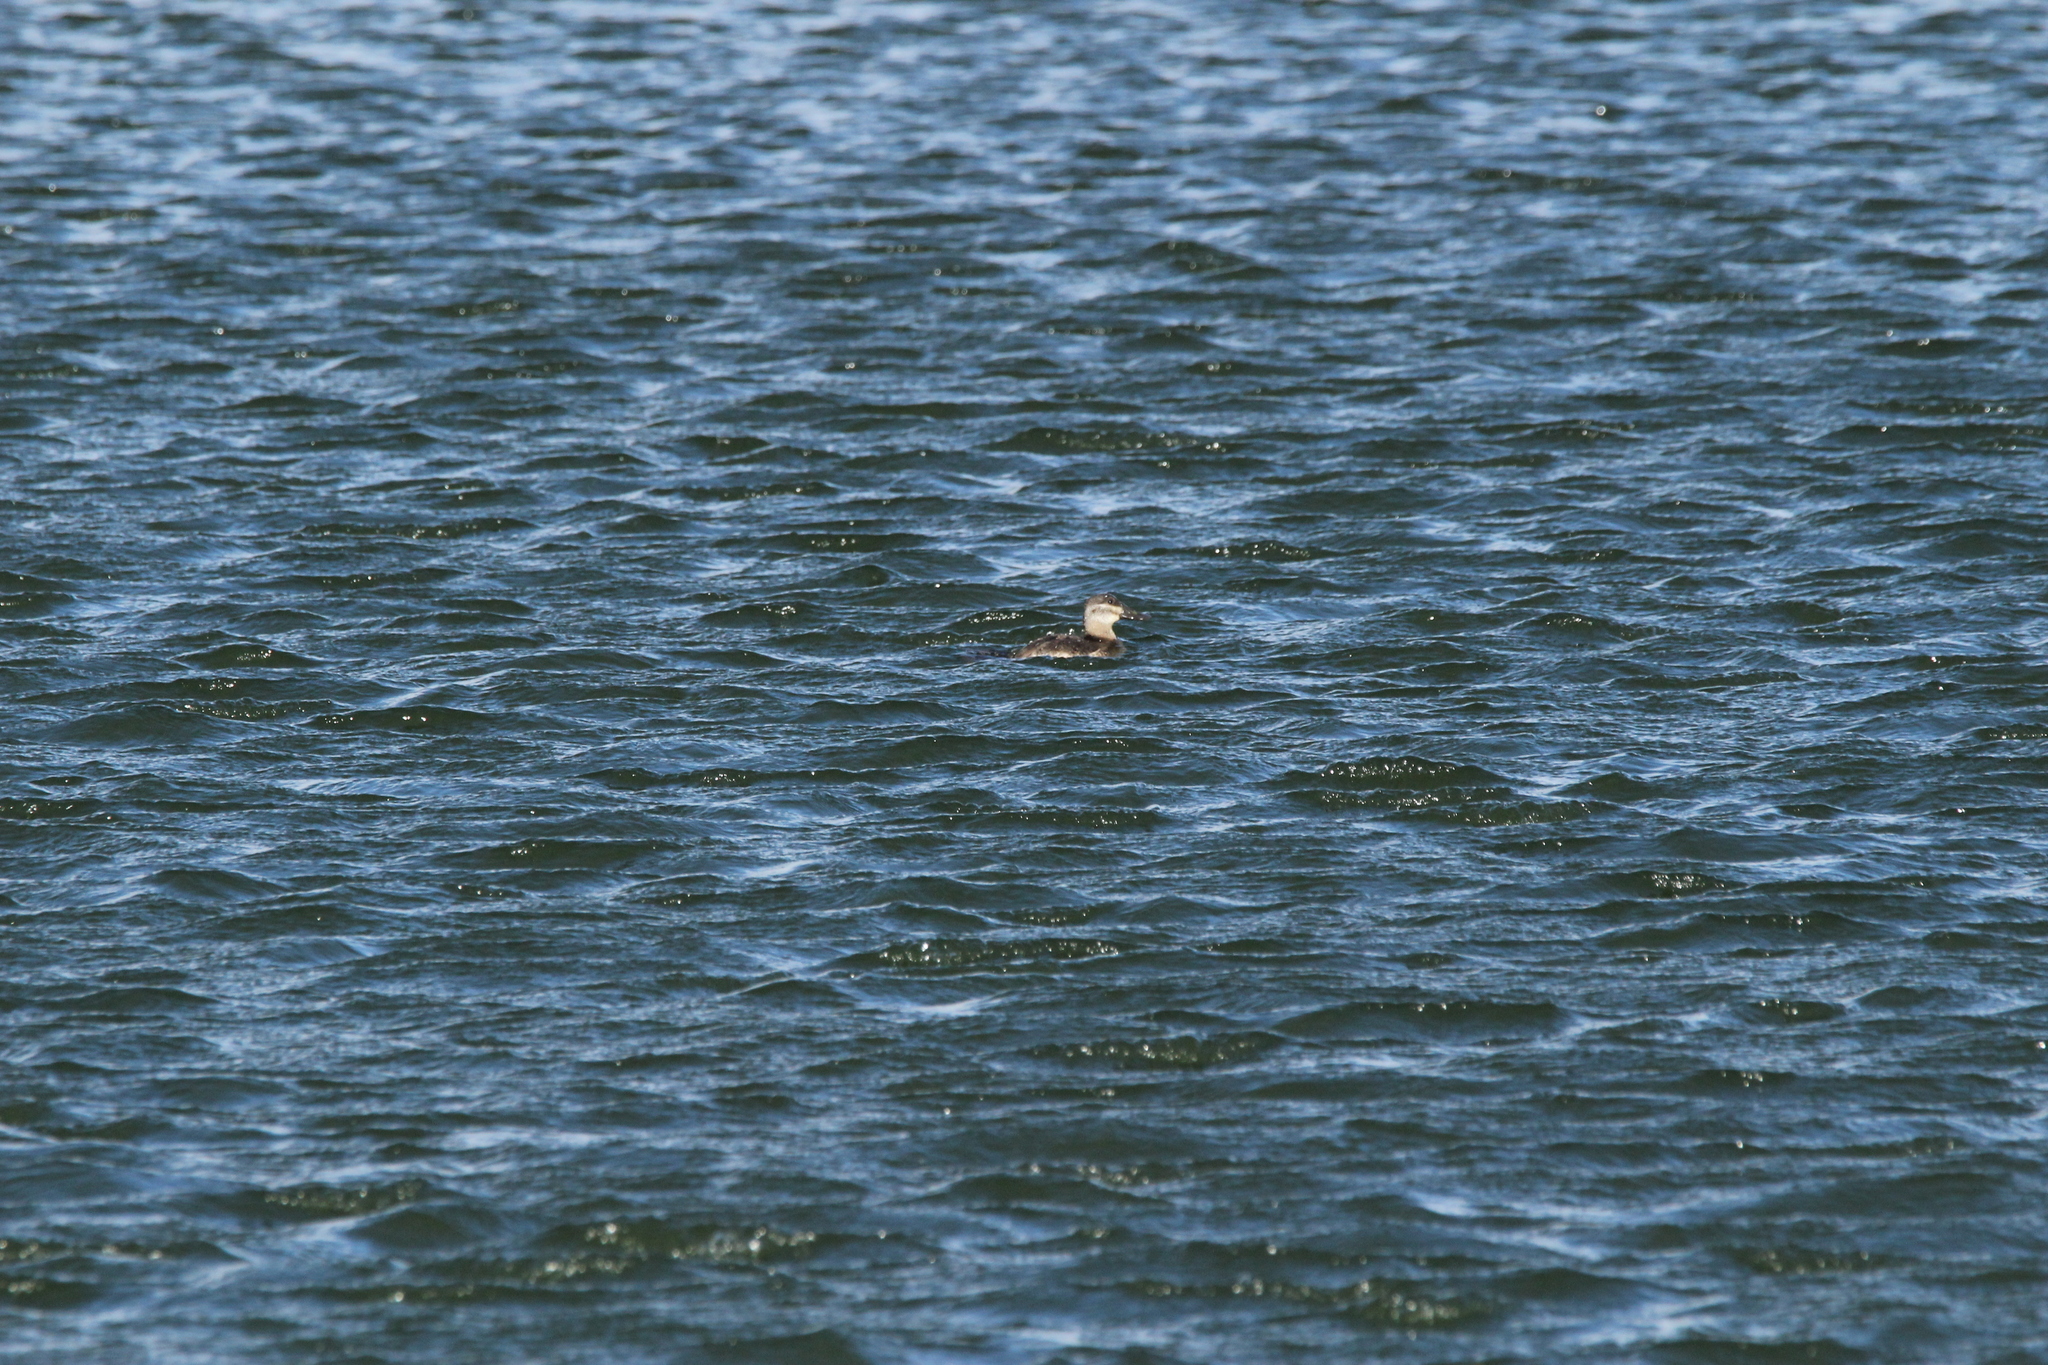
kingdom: Animalia
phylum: Chordata
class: Aves
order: Anseriformes
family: Anatidae
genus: Oxyura
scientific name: Oxyura jamaicensis
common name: Ruddy duck
